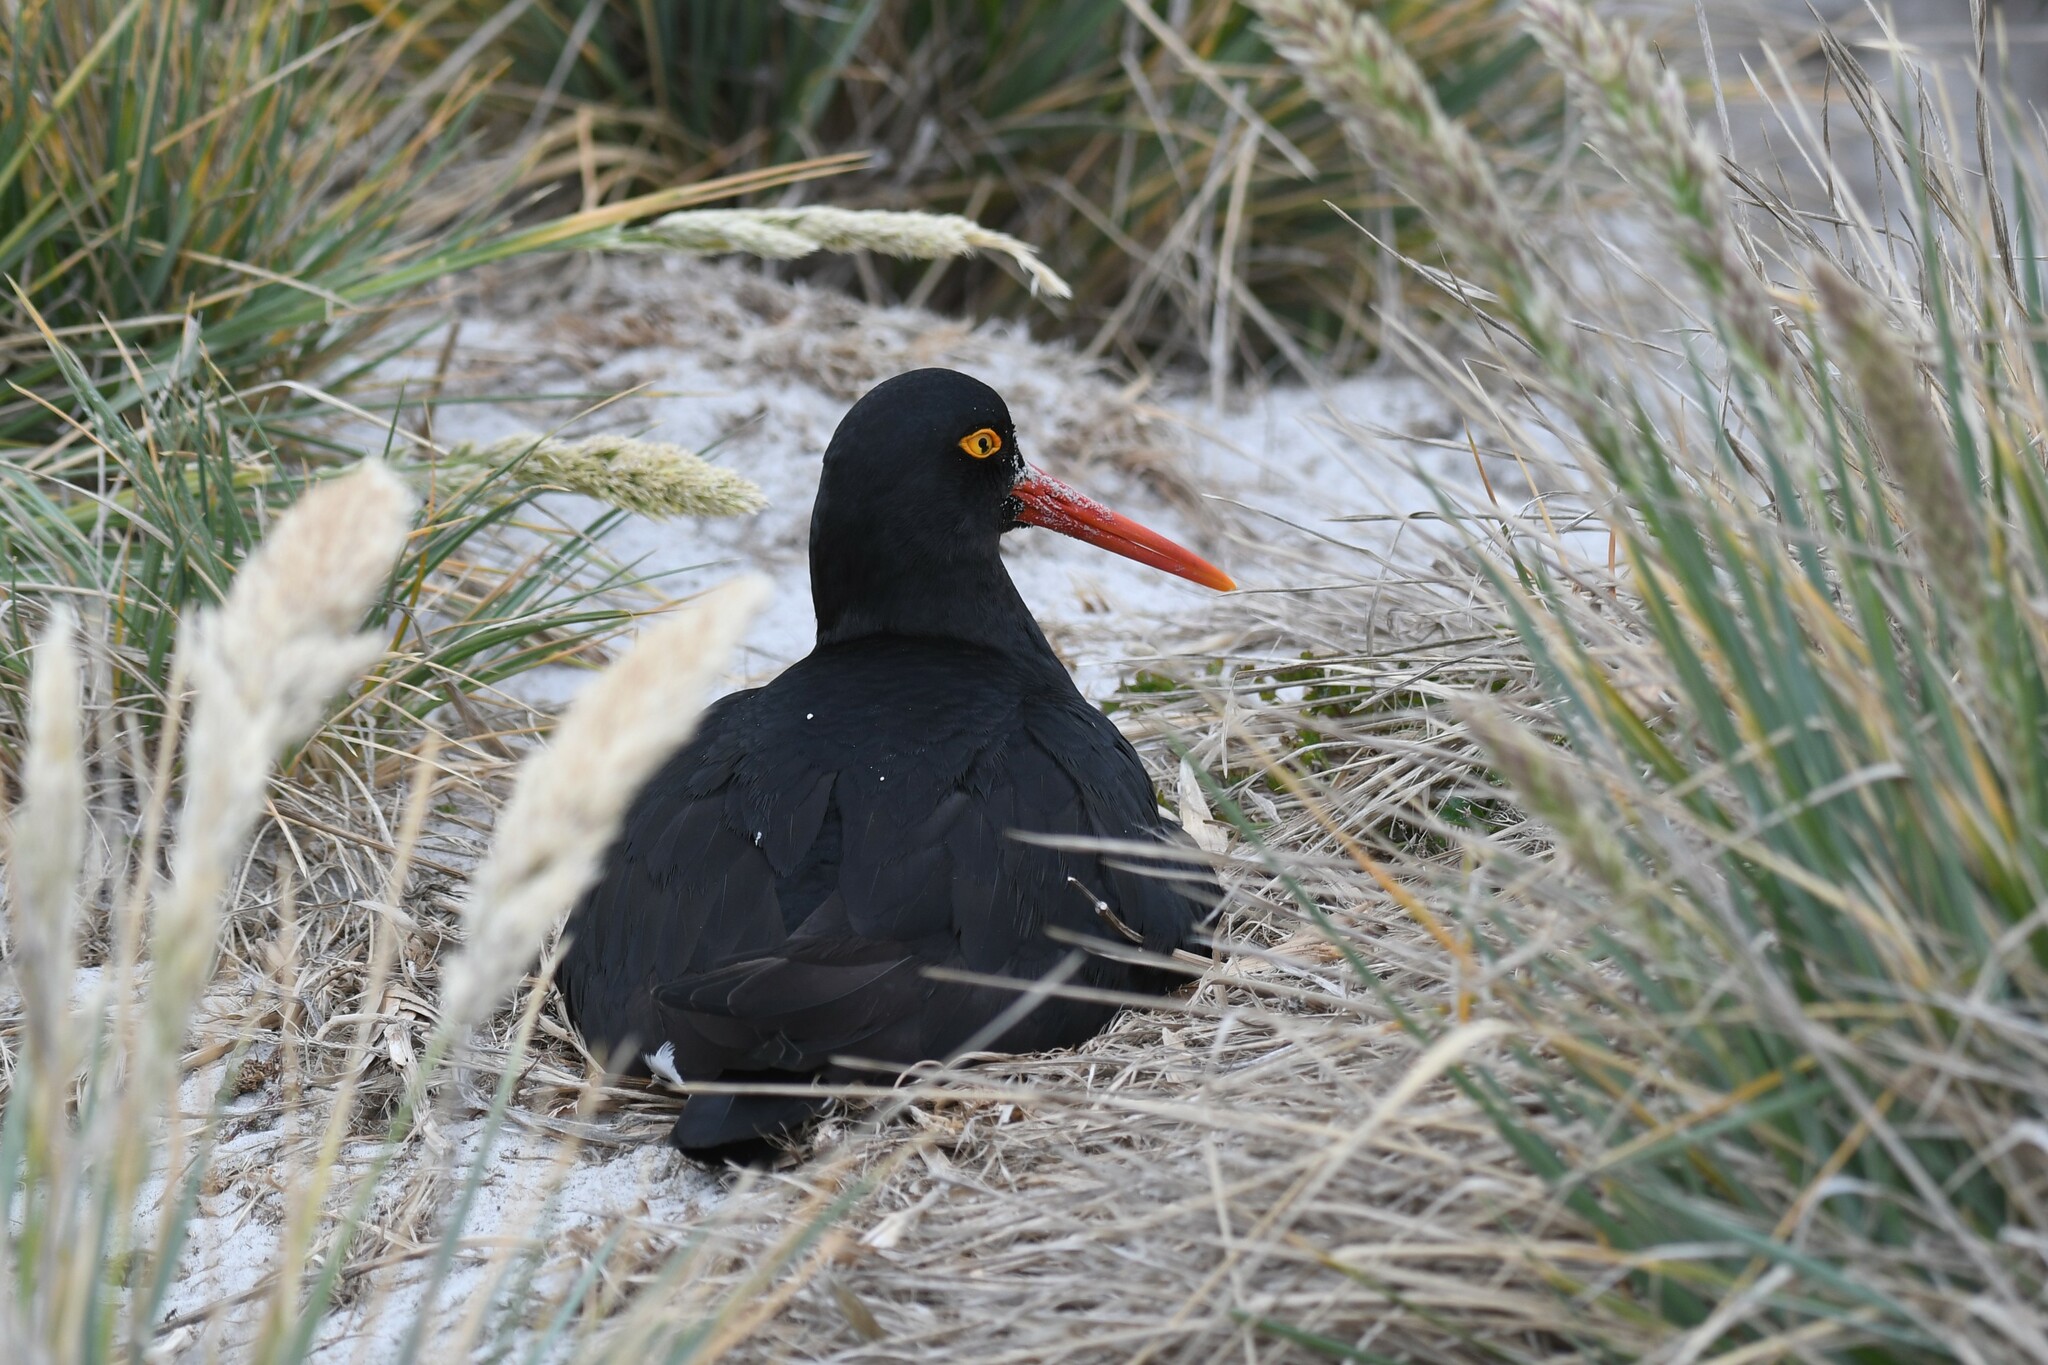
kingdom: Animalia
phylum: Chordata
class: Aves
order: Charadriiformes
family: Haematopodidae
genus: Haematopus
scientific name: Haematopus leucopodus
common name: Magellanic oystercatcher
